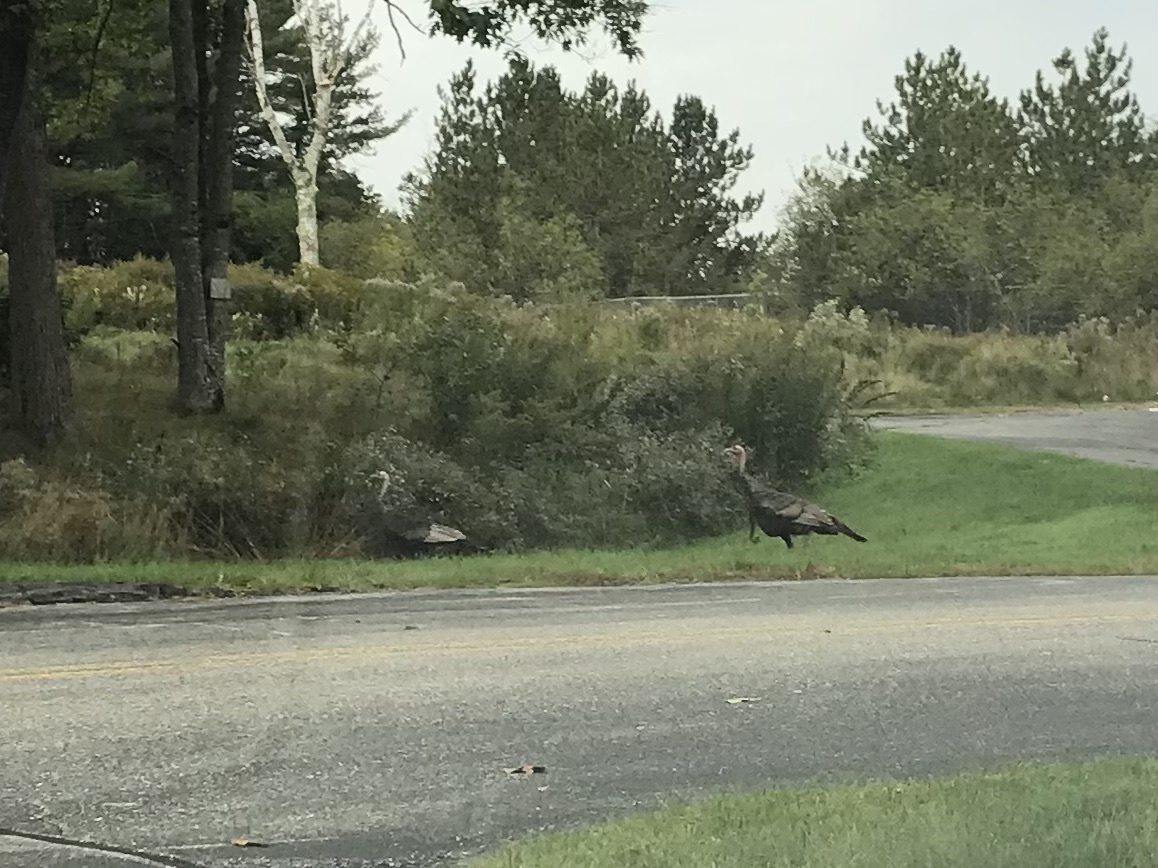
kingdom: Animalia
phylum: Chordata
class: Aves
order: Galliformes
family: Phasianidae
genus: Meleagris
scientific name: Meleagris gallopavo
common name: Wild turkey
